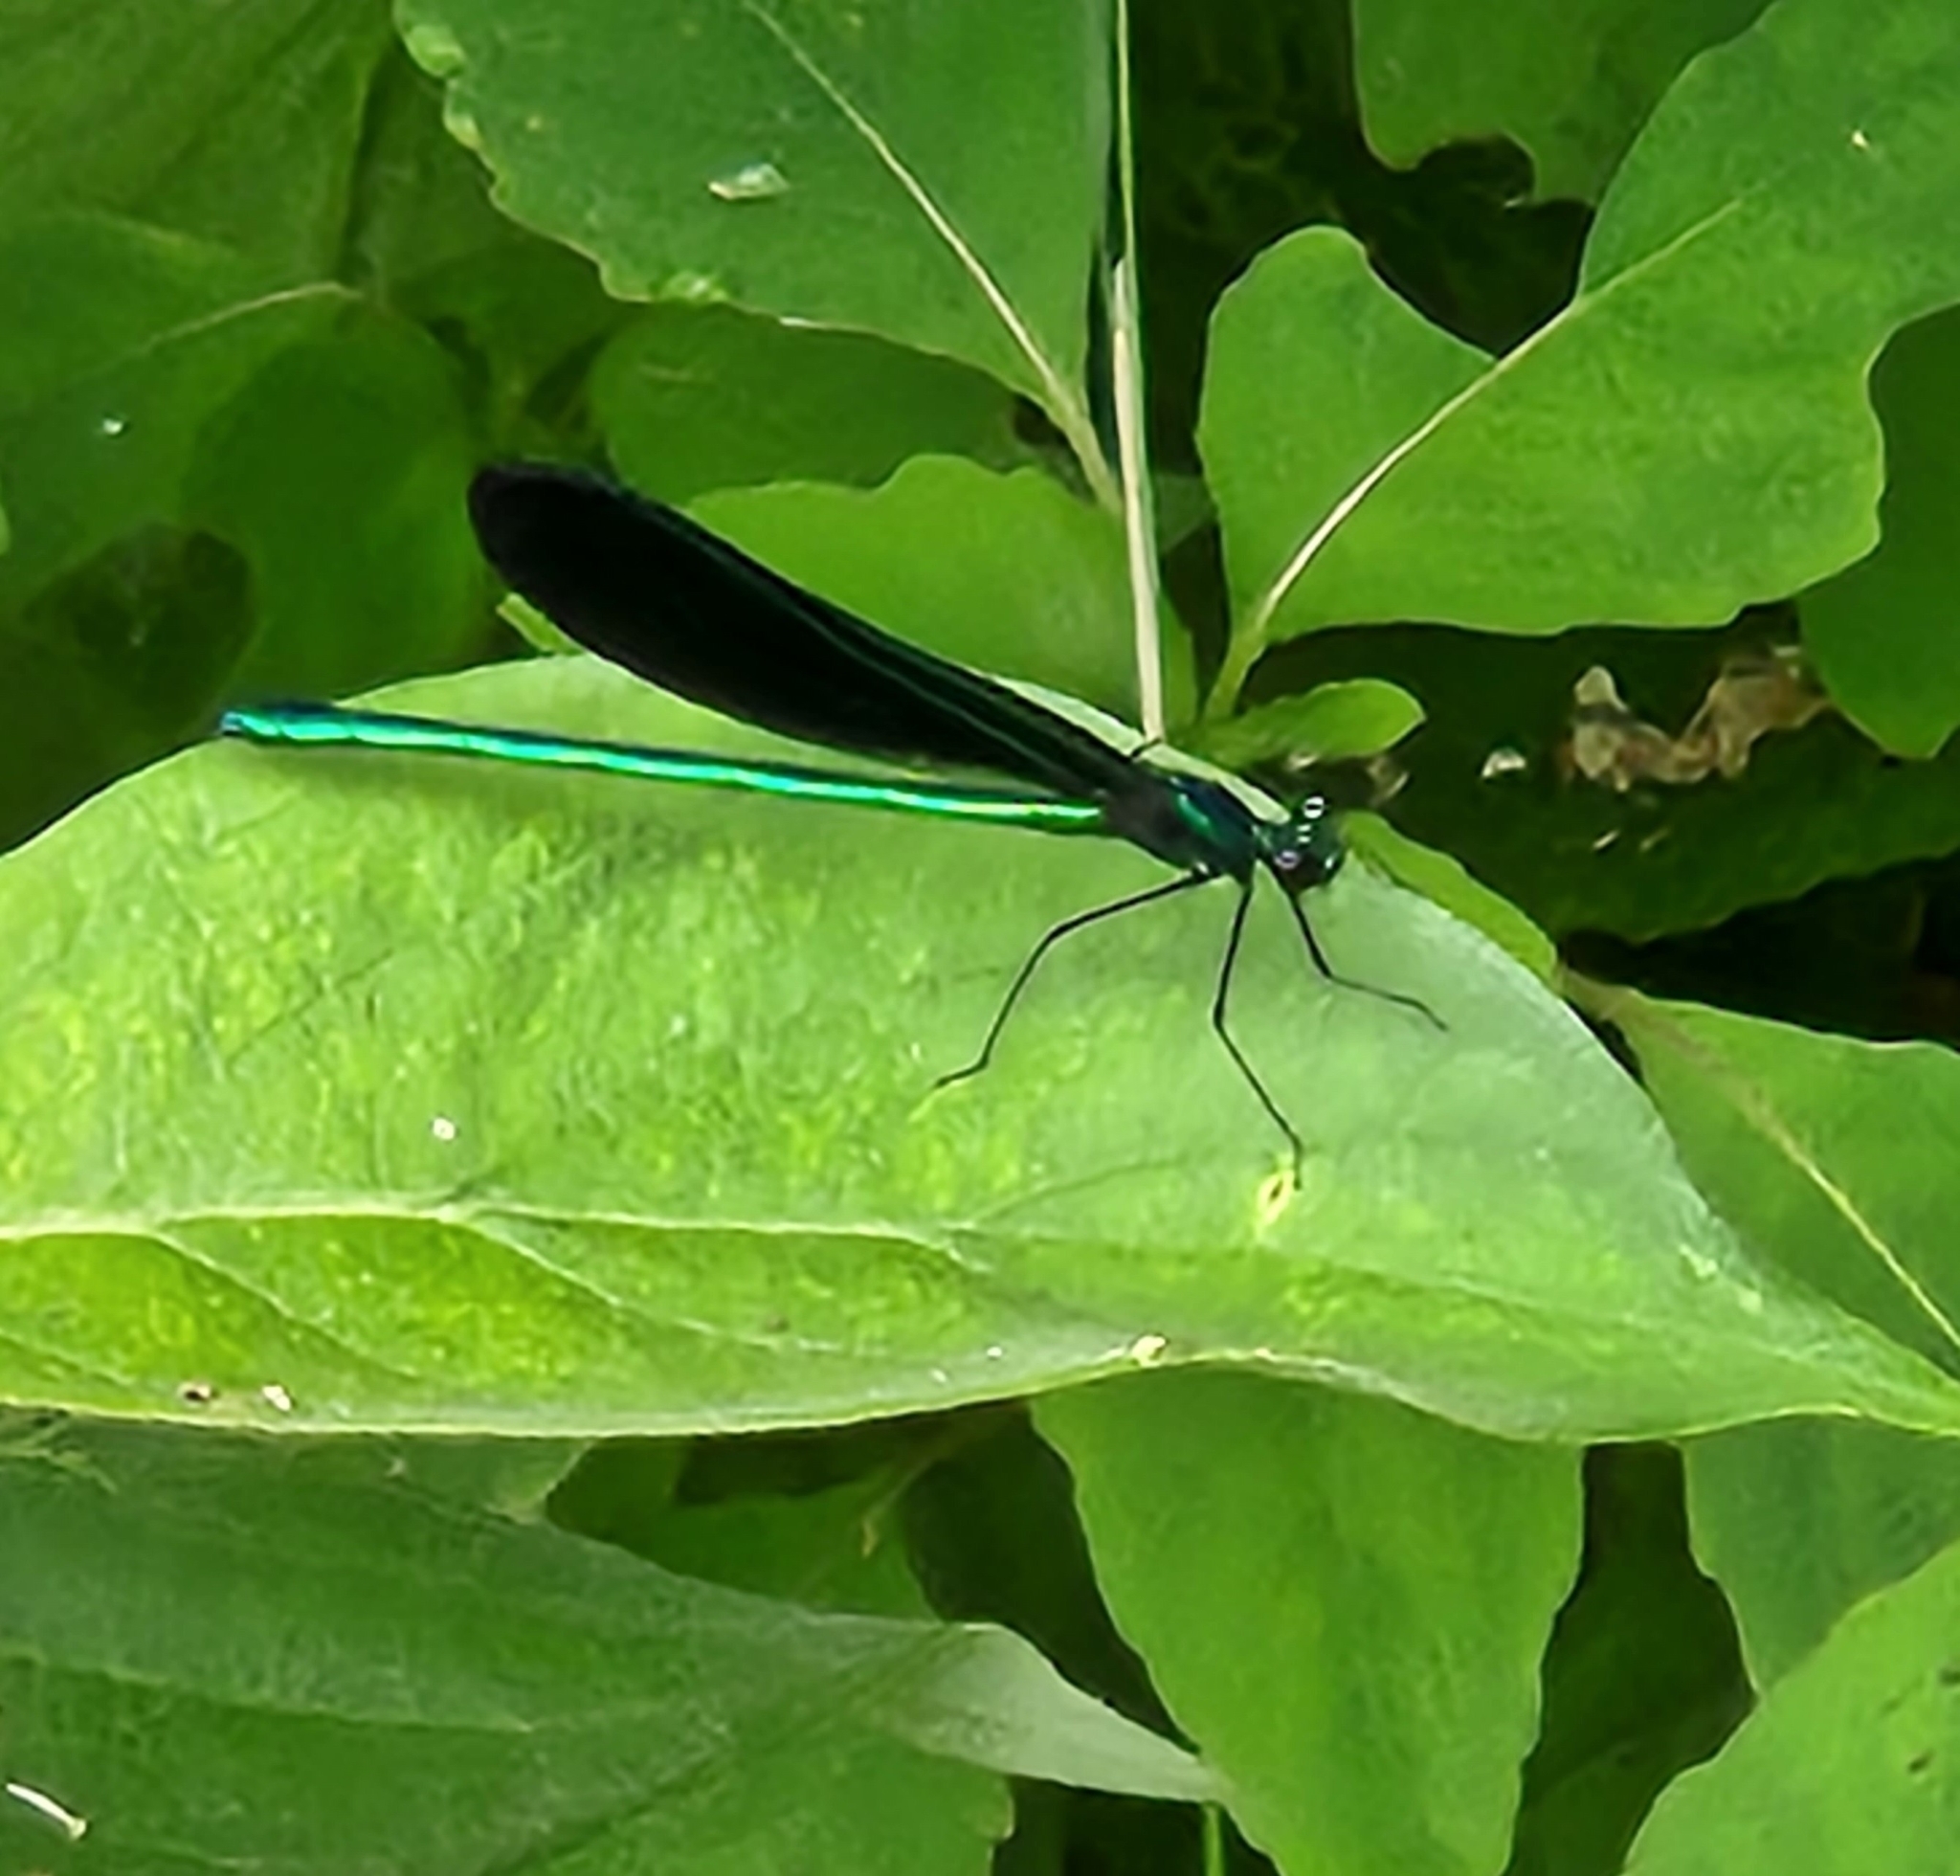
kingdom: Animalia
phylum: Arthropoda
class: Insecta
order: Odonata
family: Calopterygidae
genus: Calopteryx
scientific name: Calopteryx maculata
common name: Ebony jewelwing
